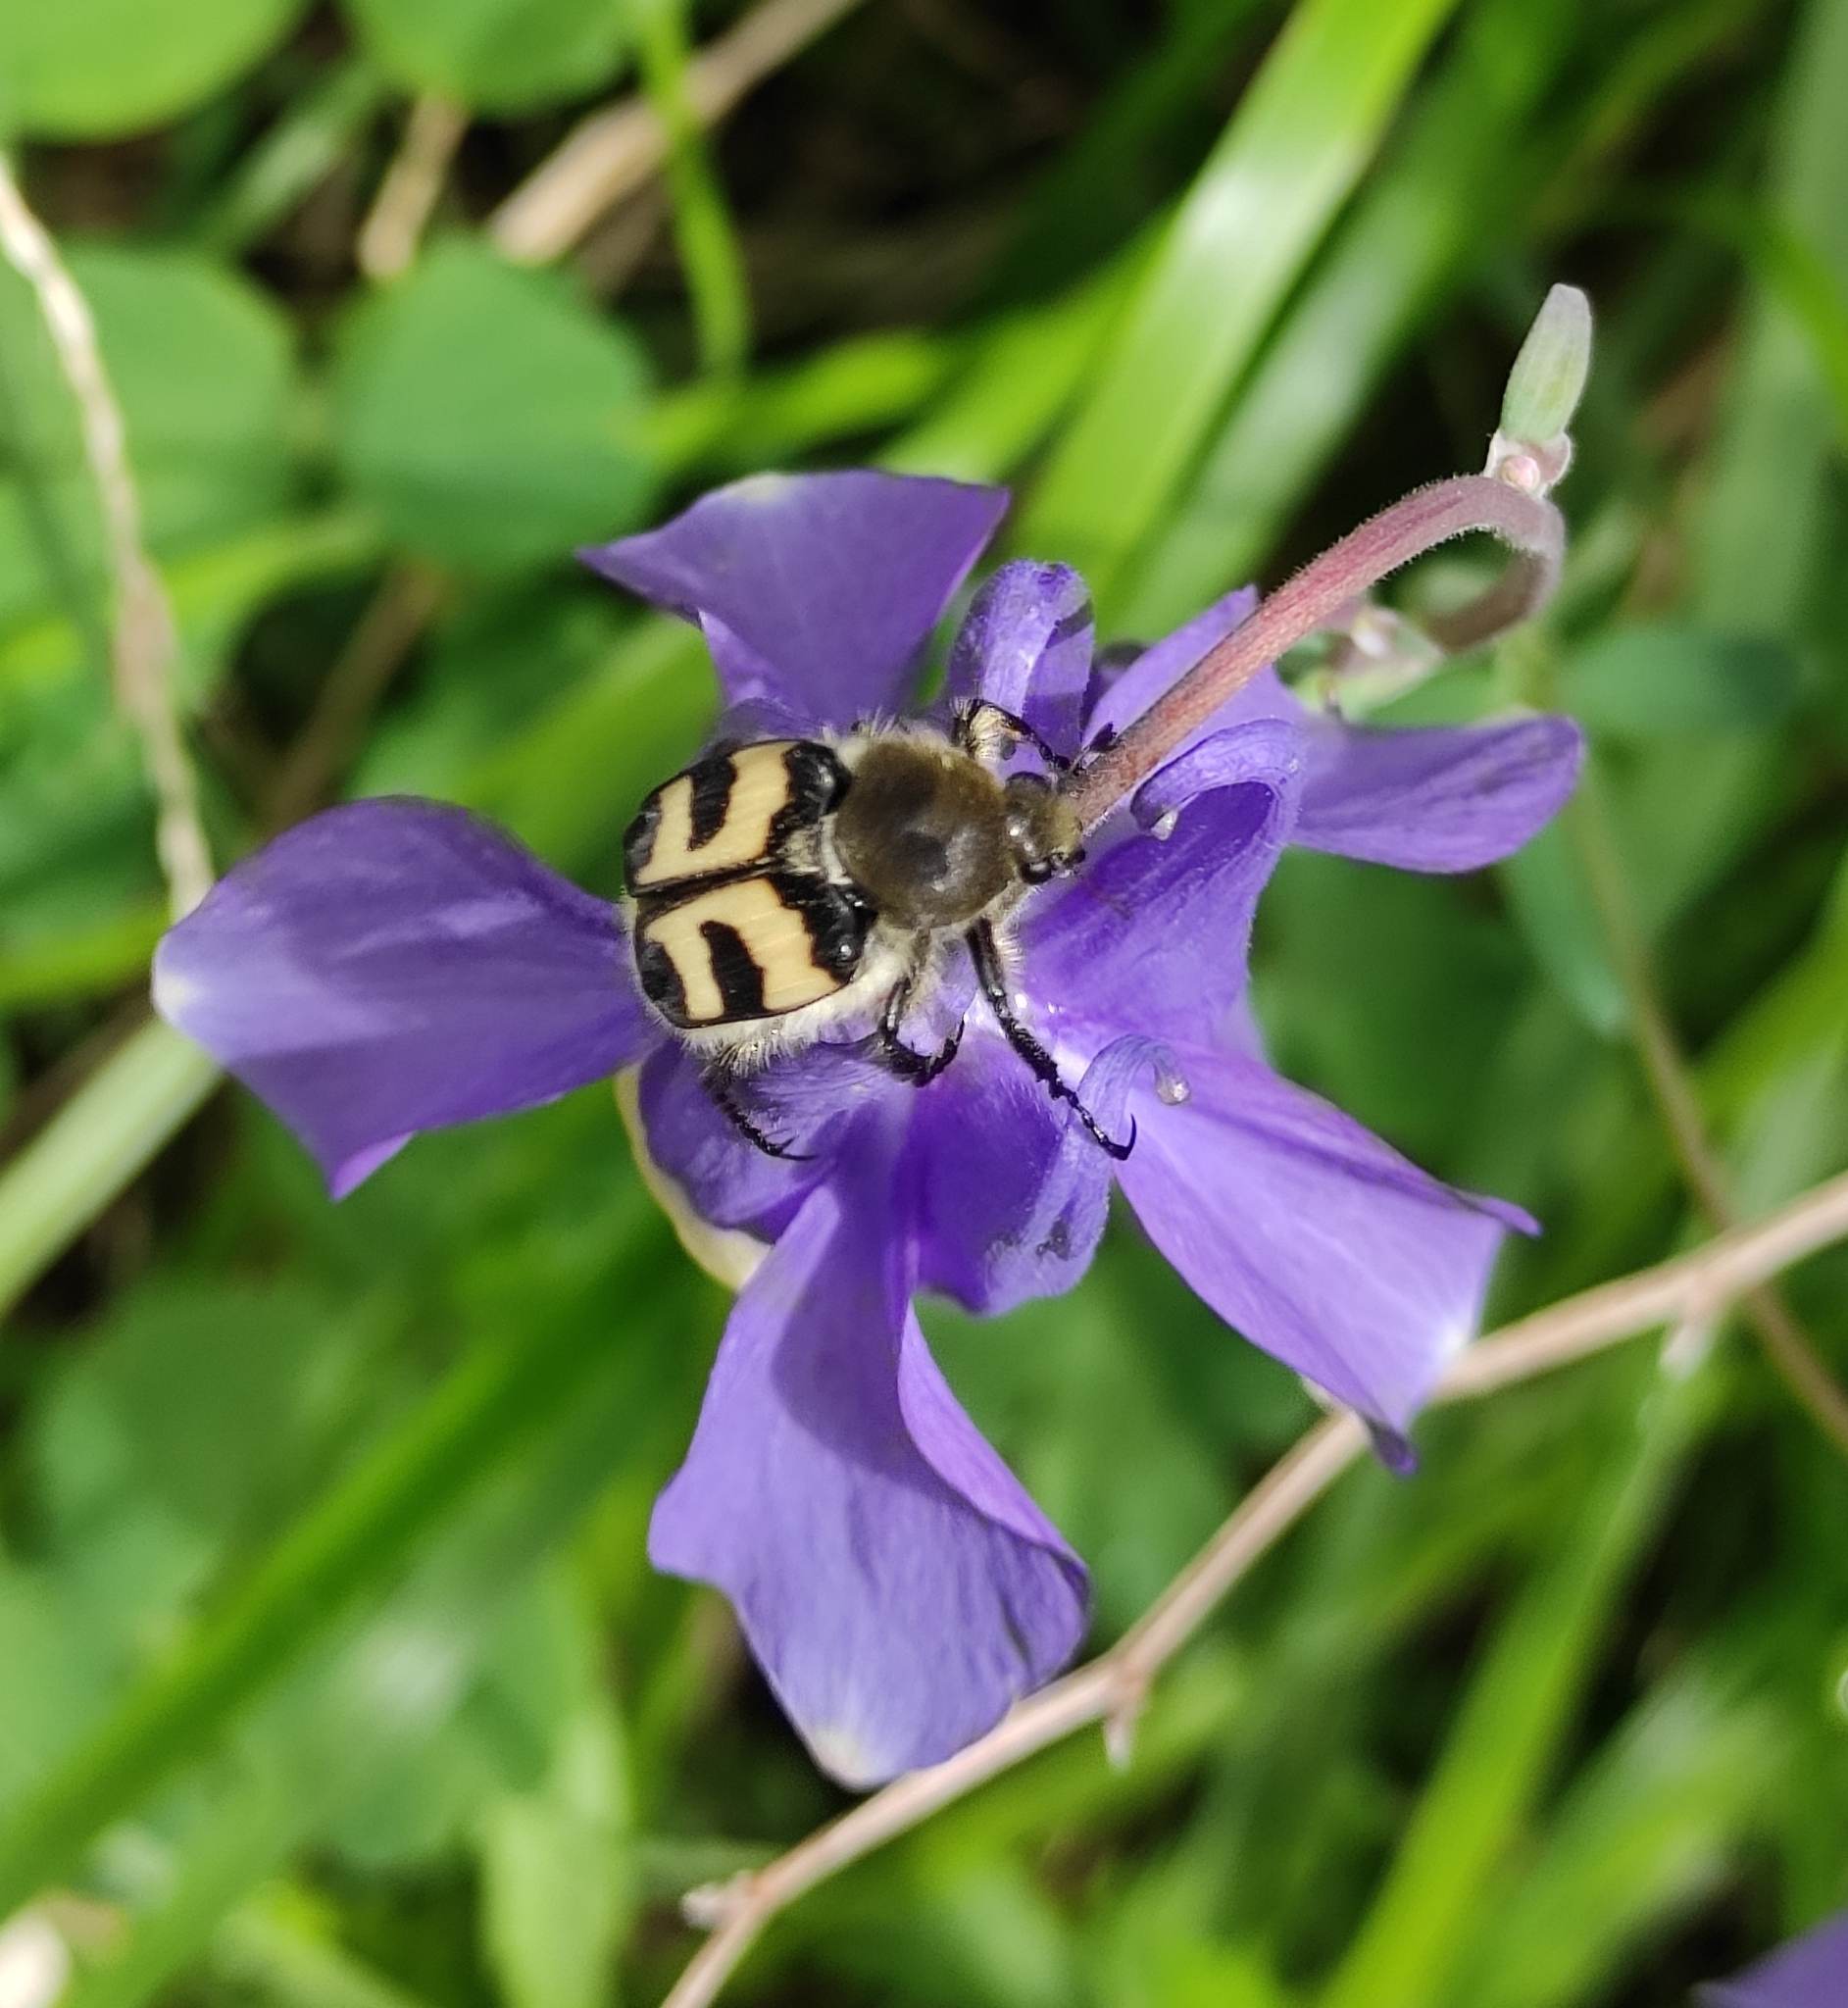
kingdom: Animalia
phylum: Arthropoda
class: Insecta
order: Coleoptera
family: Scarabaeidae
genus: Trichius
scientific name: Trichius fasciatus
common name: Bee beetle
